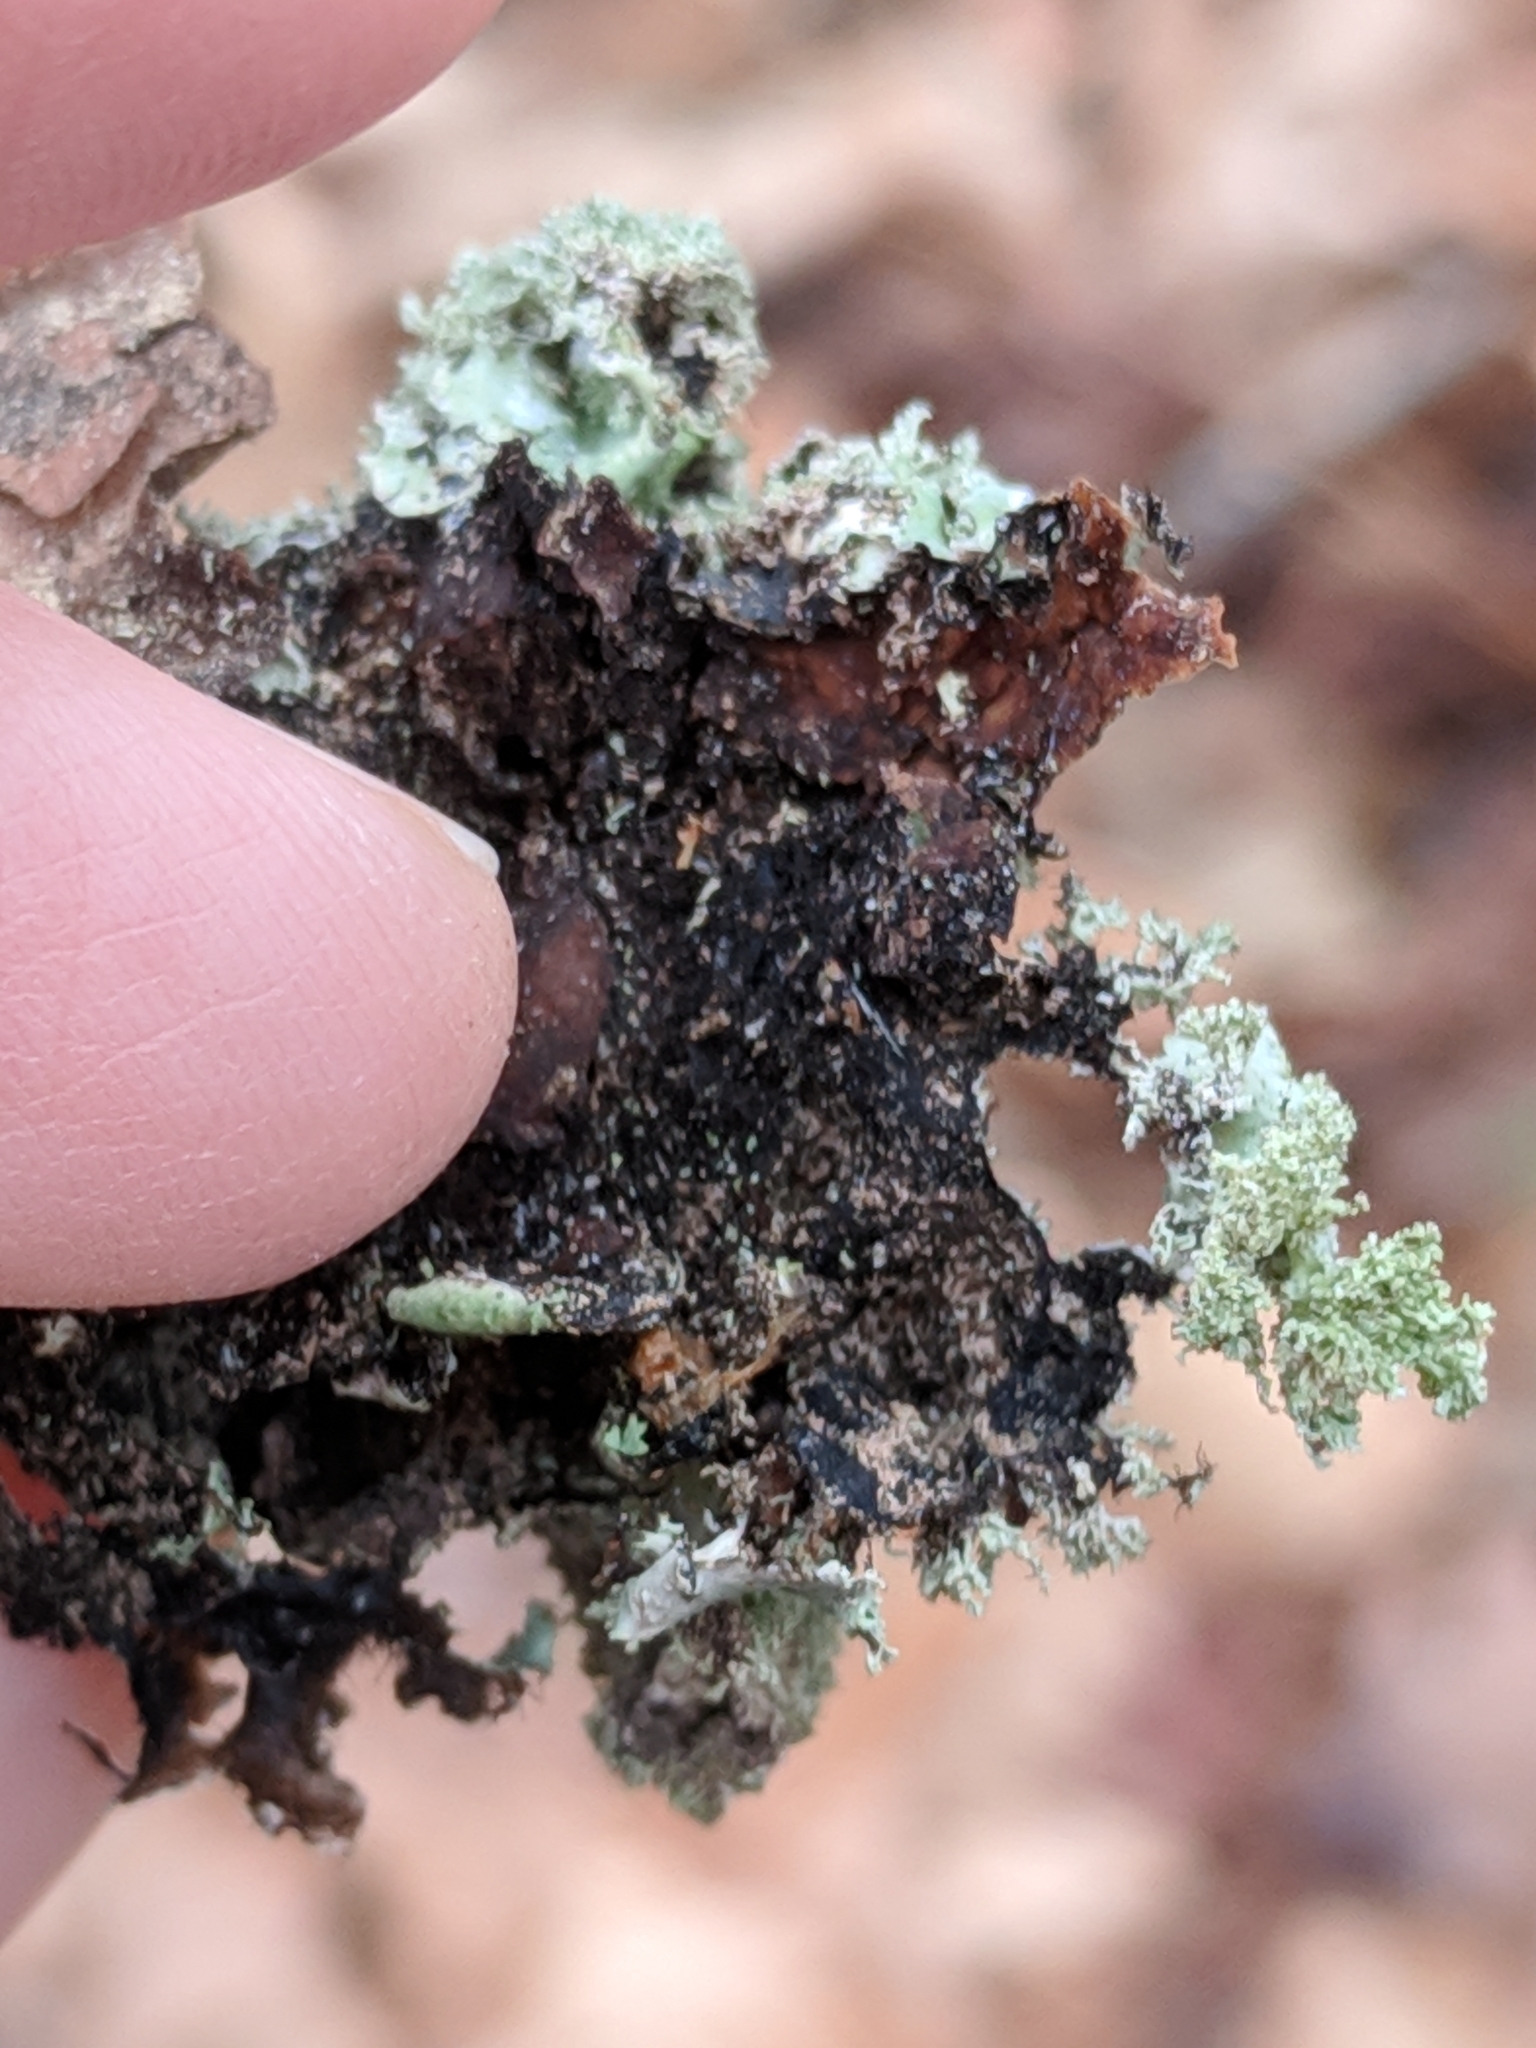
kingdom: Fungi
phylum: Ascomycota
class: Lecanoromycetes
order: Lecanorales
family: Parmeliaceae
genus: Parmotrema
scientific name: Parmotrema crinitum
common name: Salted ruffle lichen
